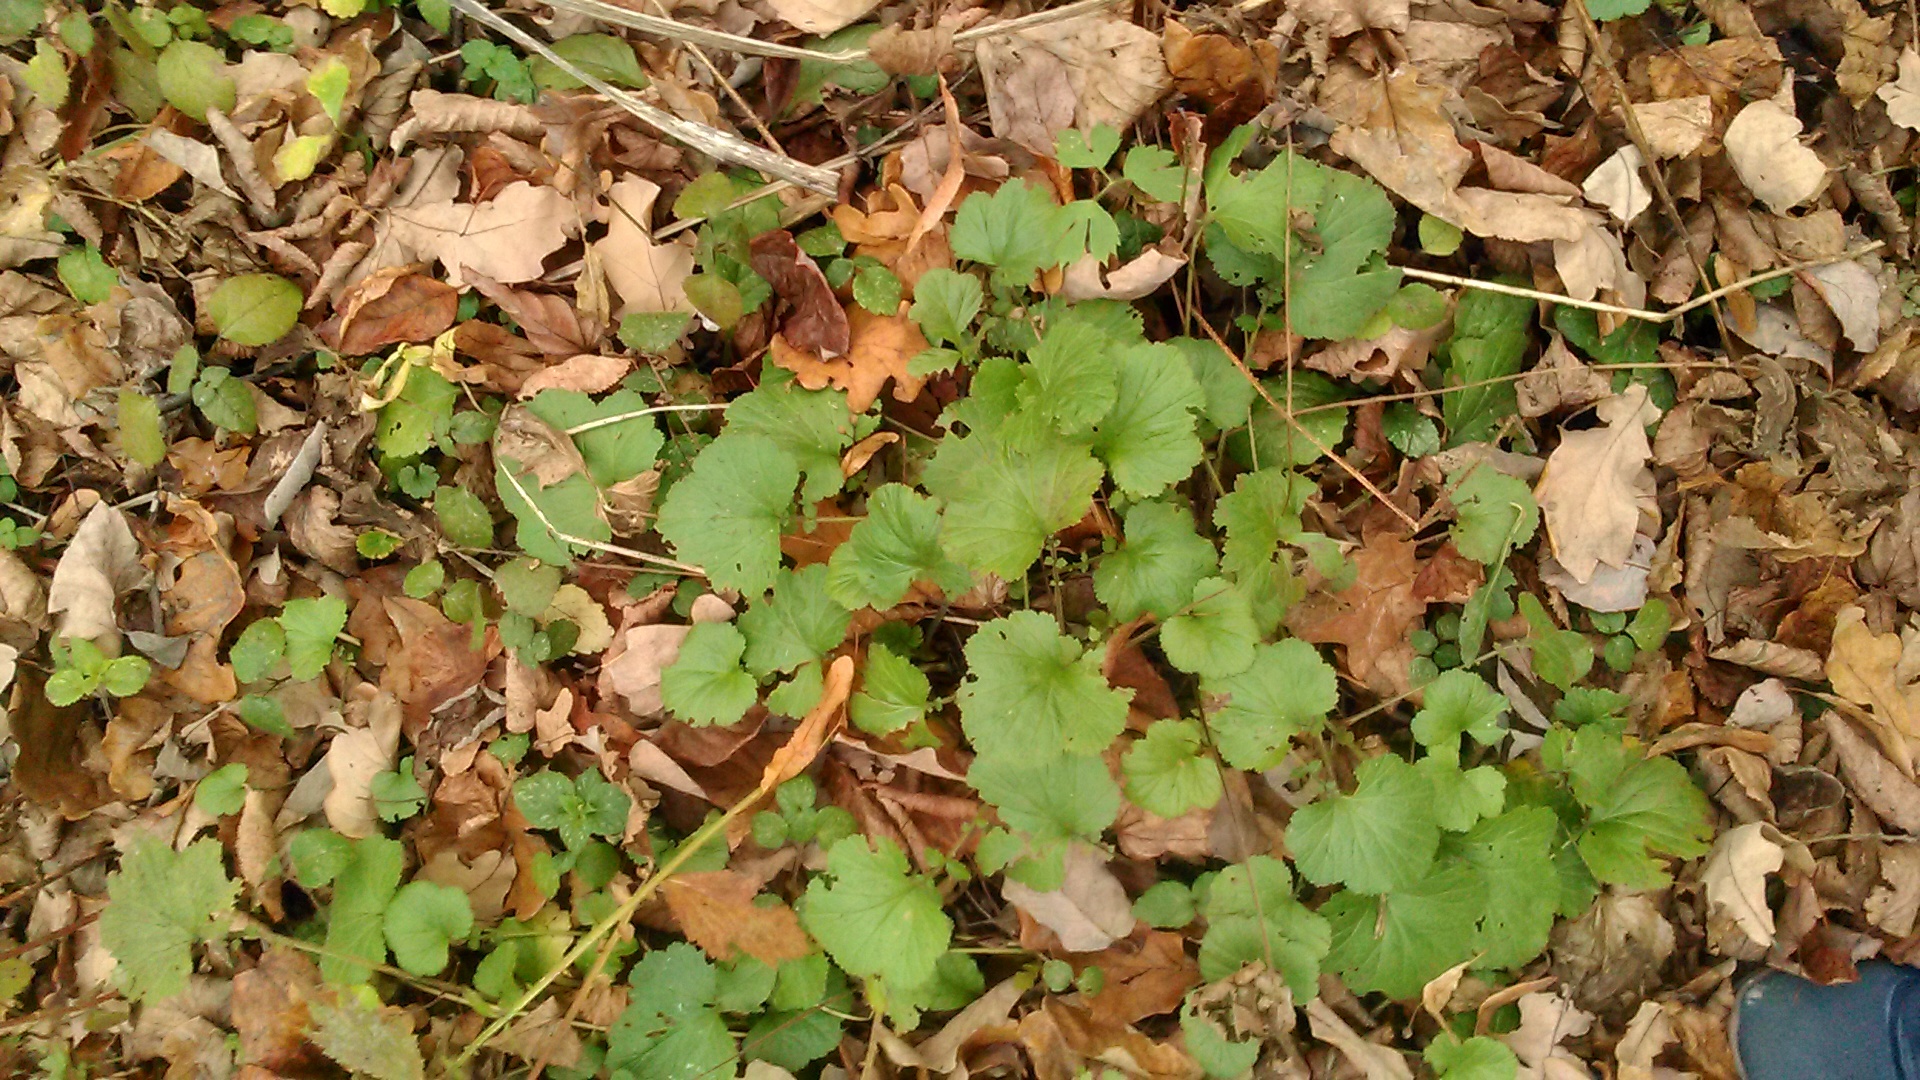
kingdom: Plantae
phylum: Tracheophyta
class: Magnoliopsida
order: Rosales
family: Rosaceae
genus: Geum
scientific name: Geum
